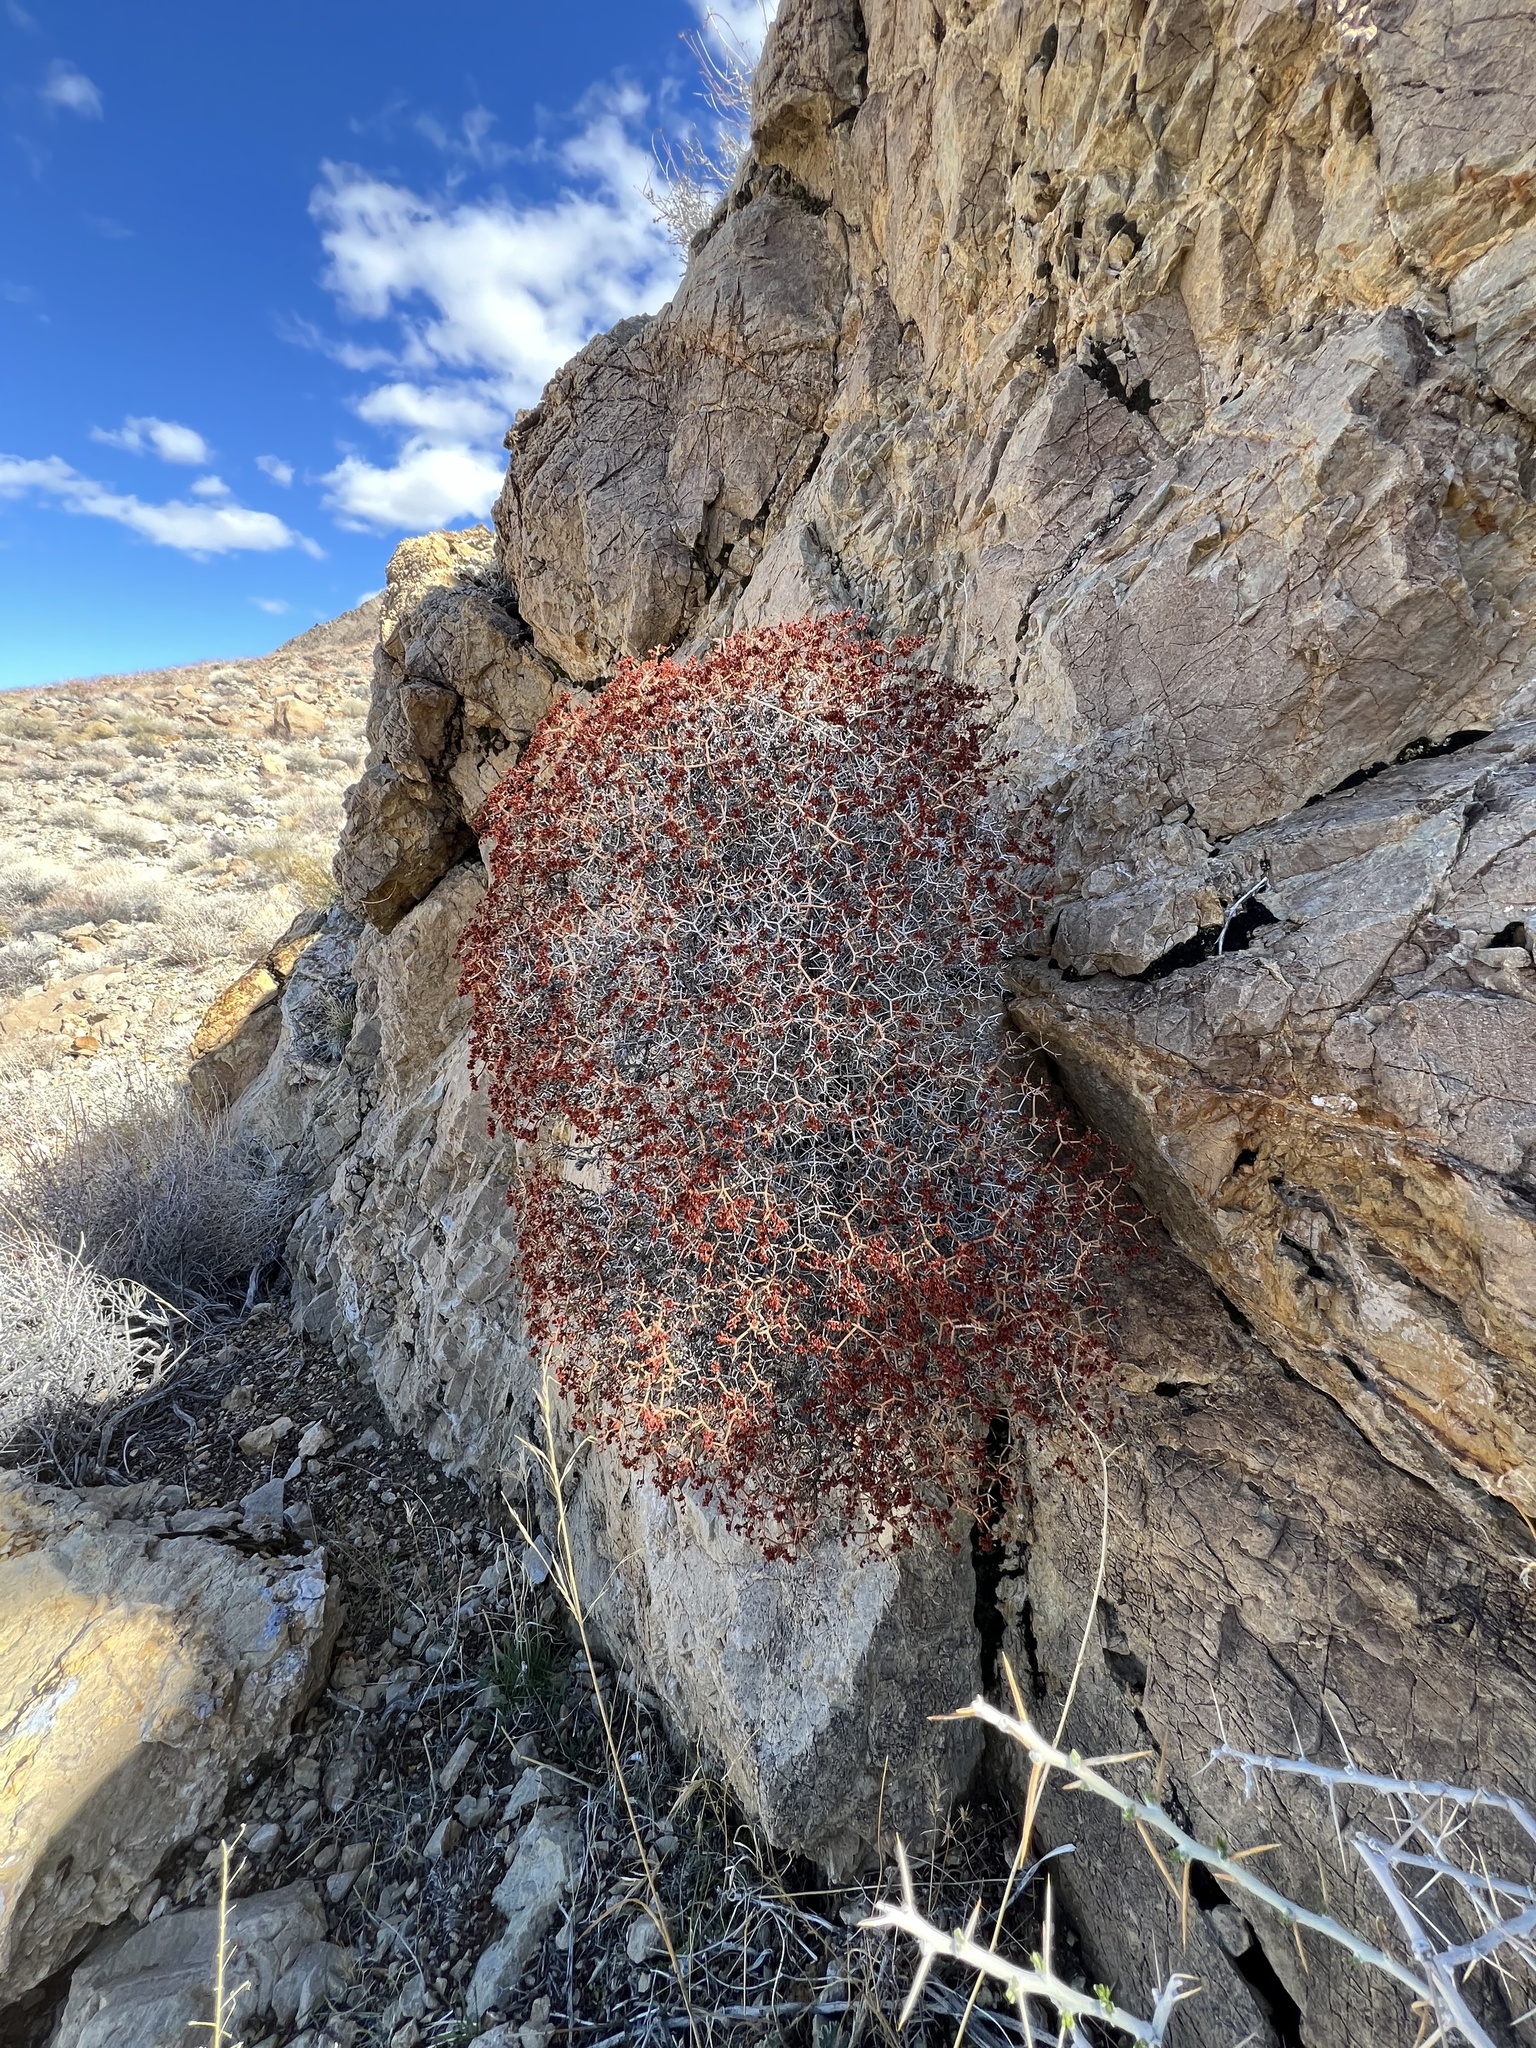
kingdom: Plantae
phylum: Tracheophyta
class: Magnoliopsida
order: Caryophyllales
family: Polygonaceae
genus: Eriogonum
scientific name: Eriogonum heermannii
